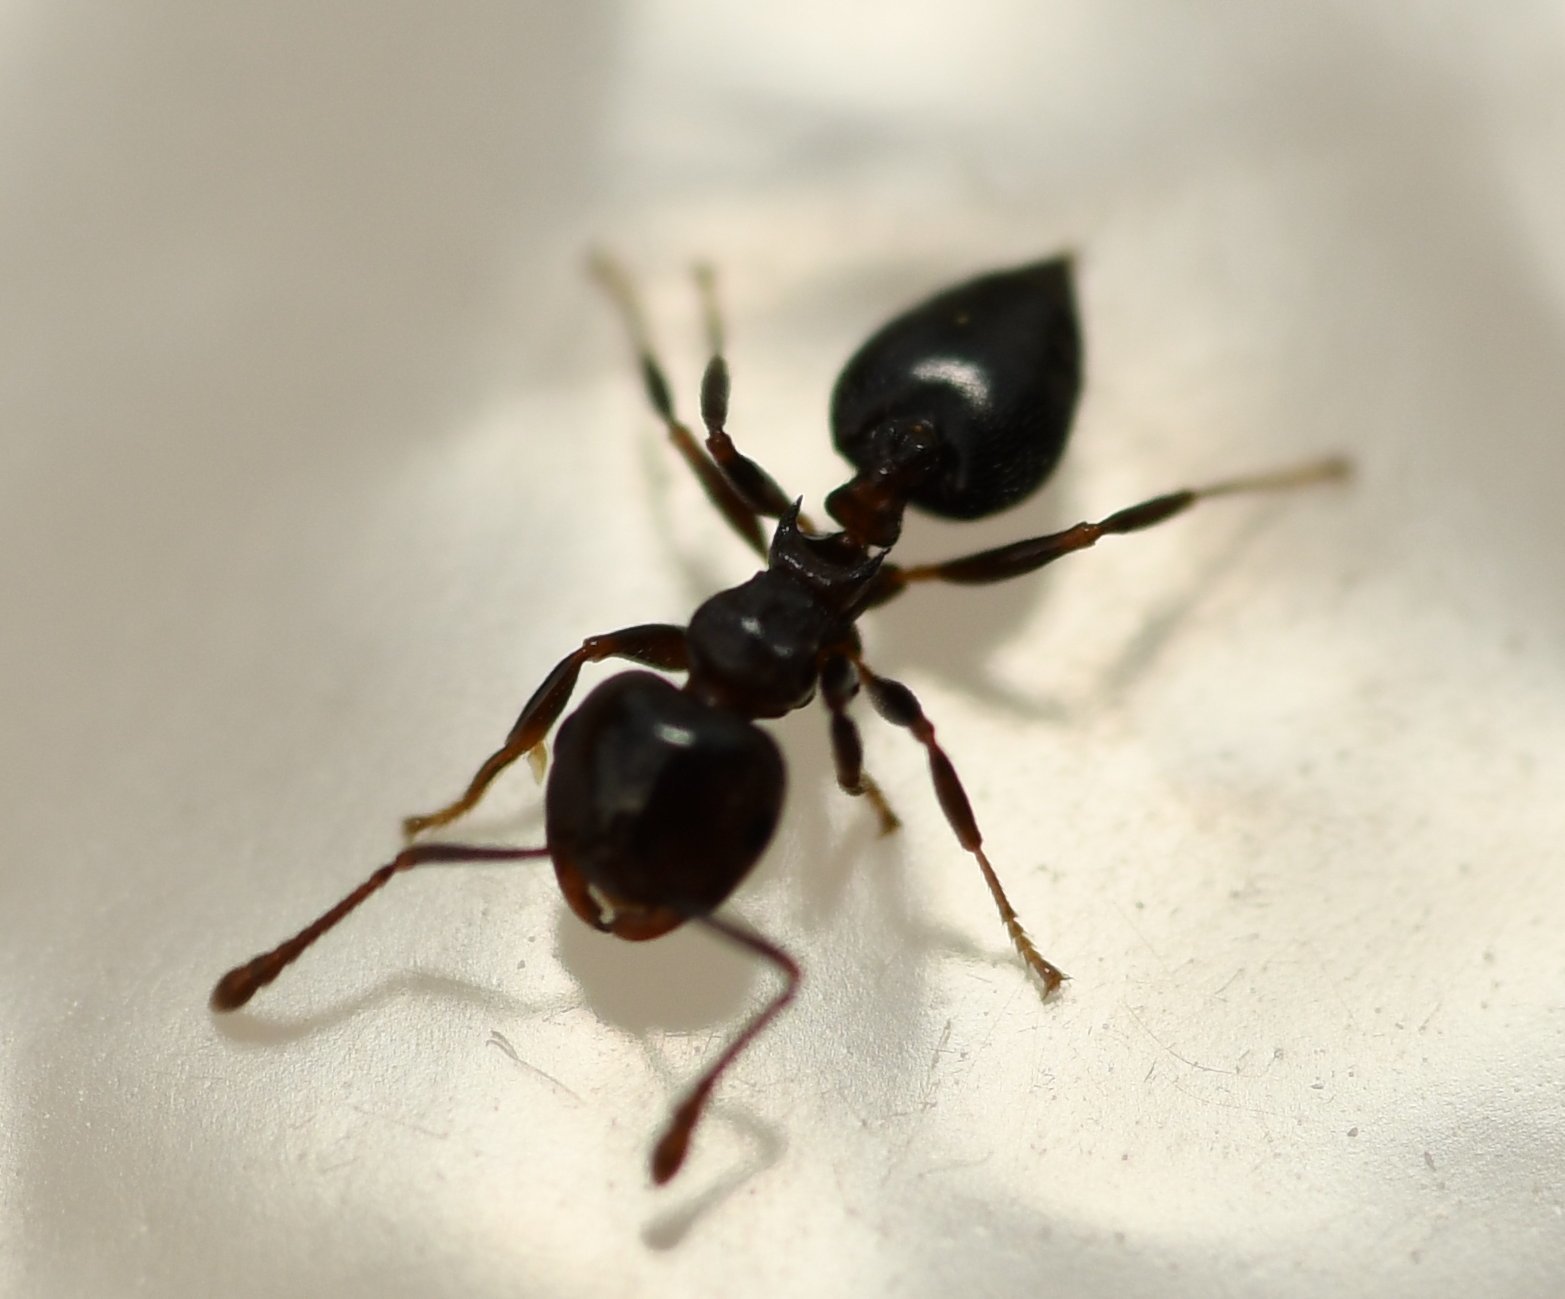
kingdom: Animalia
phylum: Arthropoda
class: Insecta
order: Hymenoptera
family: Formicidae
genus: Crematogaster
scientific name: Crematogaster ashmeadi
